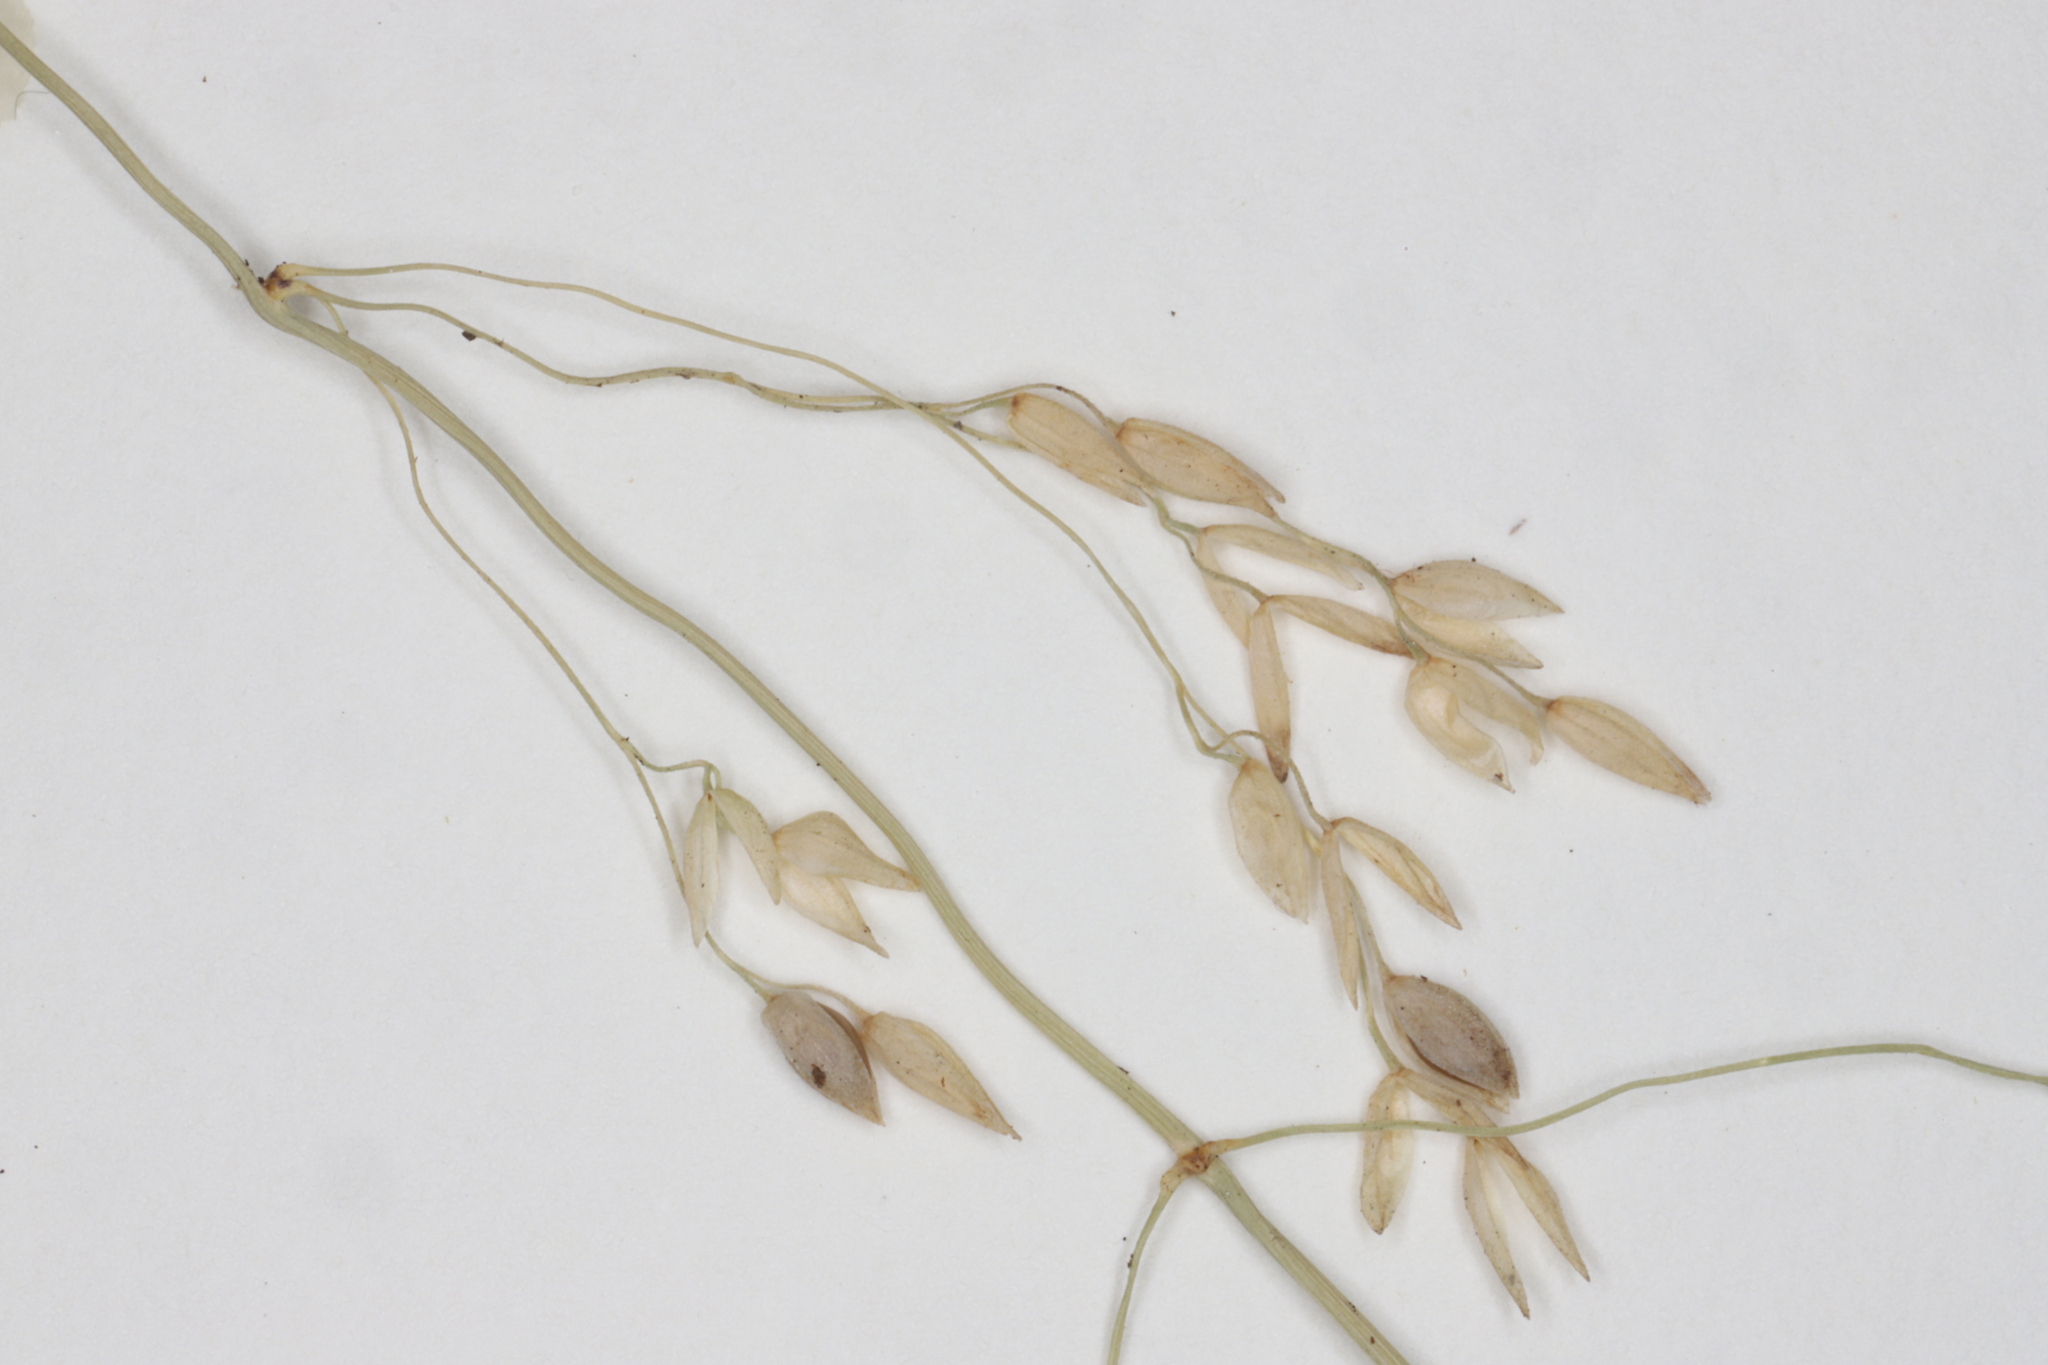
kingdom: Plantae
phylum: Tracheophyta
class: Liliopsida
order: Poales
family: Poaceae
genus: Milium
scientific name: Milium effusum
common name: Wood millet
